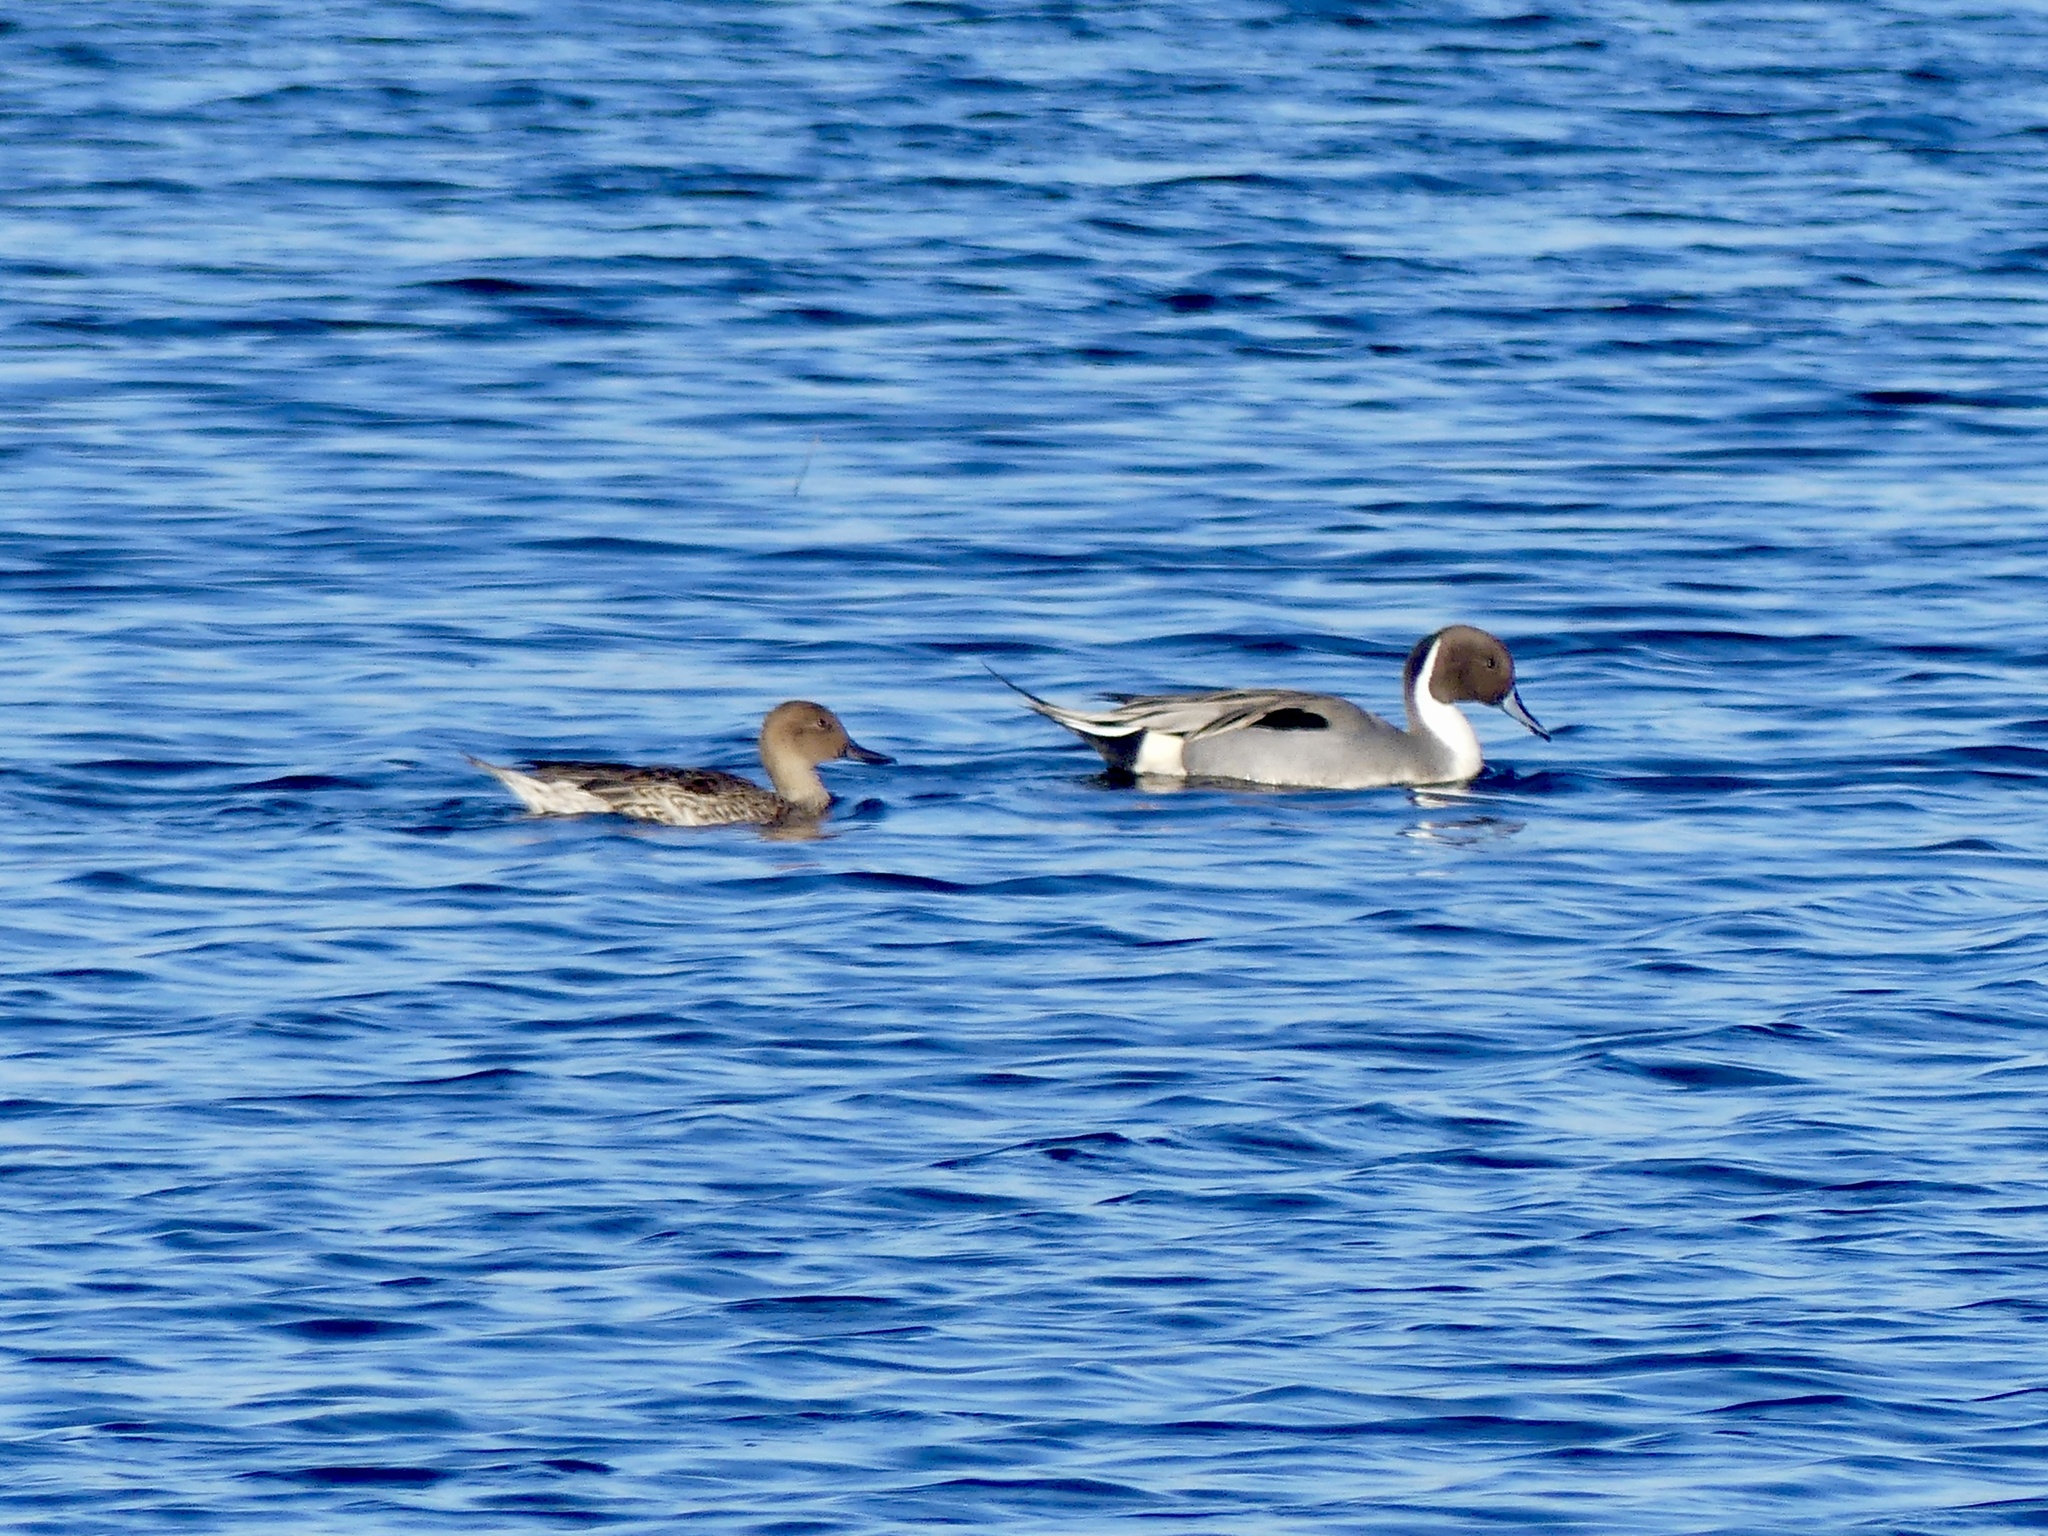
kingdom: Animalia
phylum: Chordata
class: Aves
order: Anseriformes
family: Anatidae
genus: Anas
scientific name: Anas acuta
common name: Northern pintail
